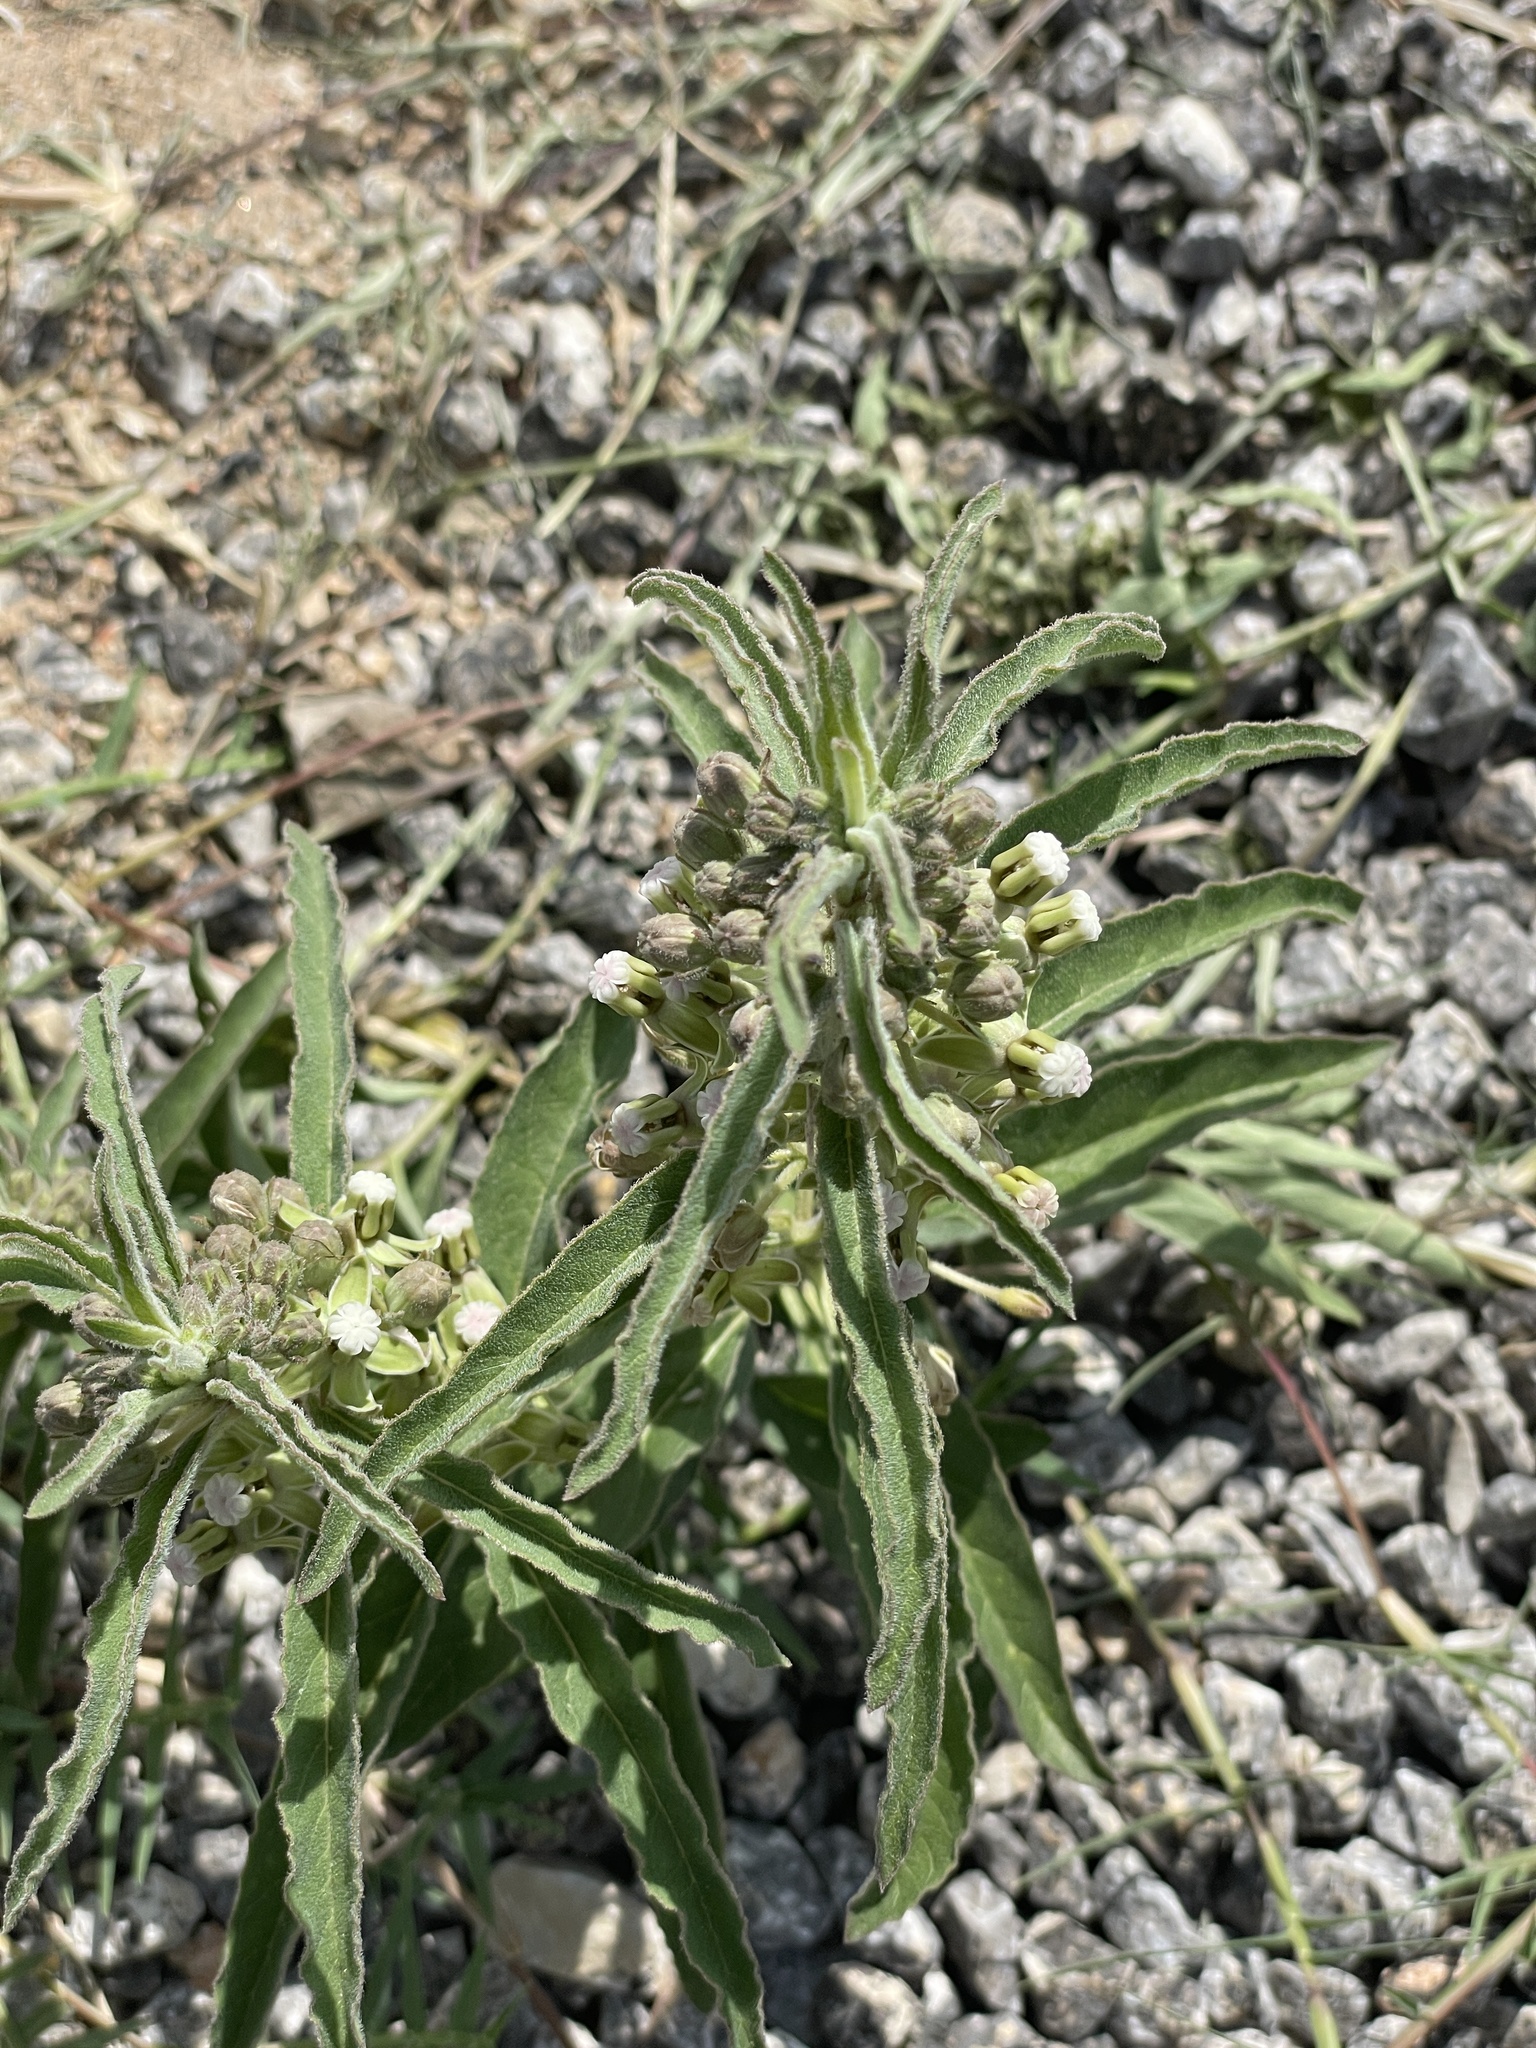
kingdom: Plantae
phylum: Tracheophyta
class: Magnoliopsida
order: Gentianales
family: Apocynaceae
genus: Asclepias
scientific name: Asclepias emoryi
